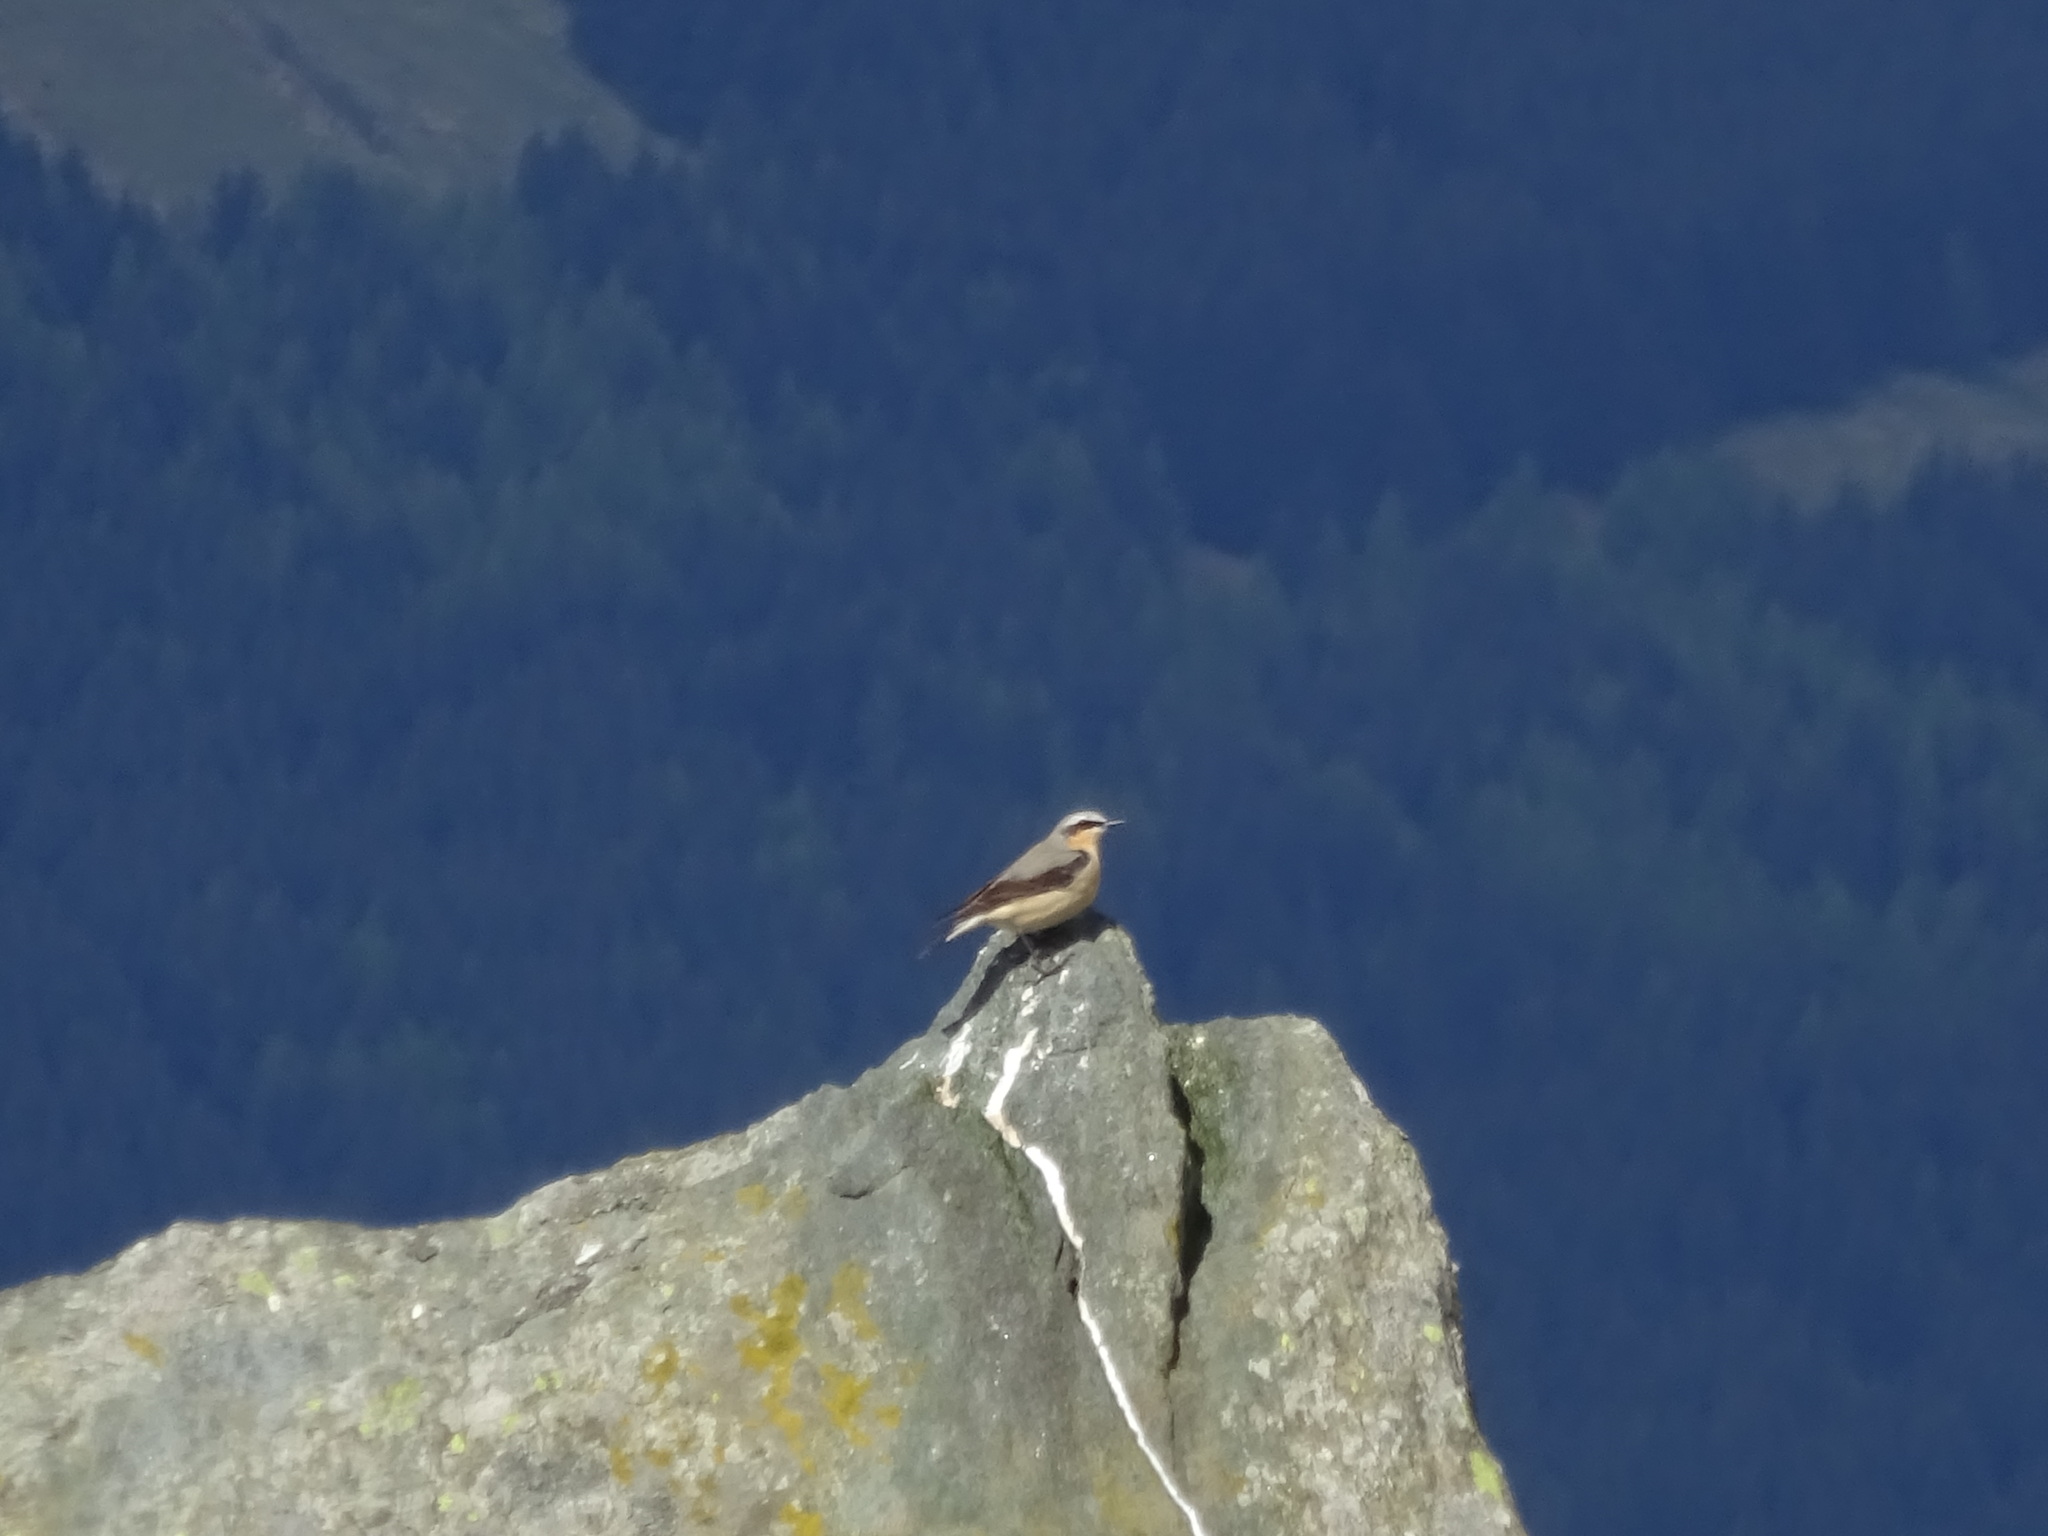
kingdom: Animalia
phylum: Chordata
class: Aves
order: Passeriformes
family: Muscicapidae
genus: Oenanthe
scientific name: Oenanthe oenanthe
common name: Northern wheatear
